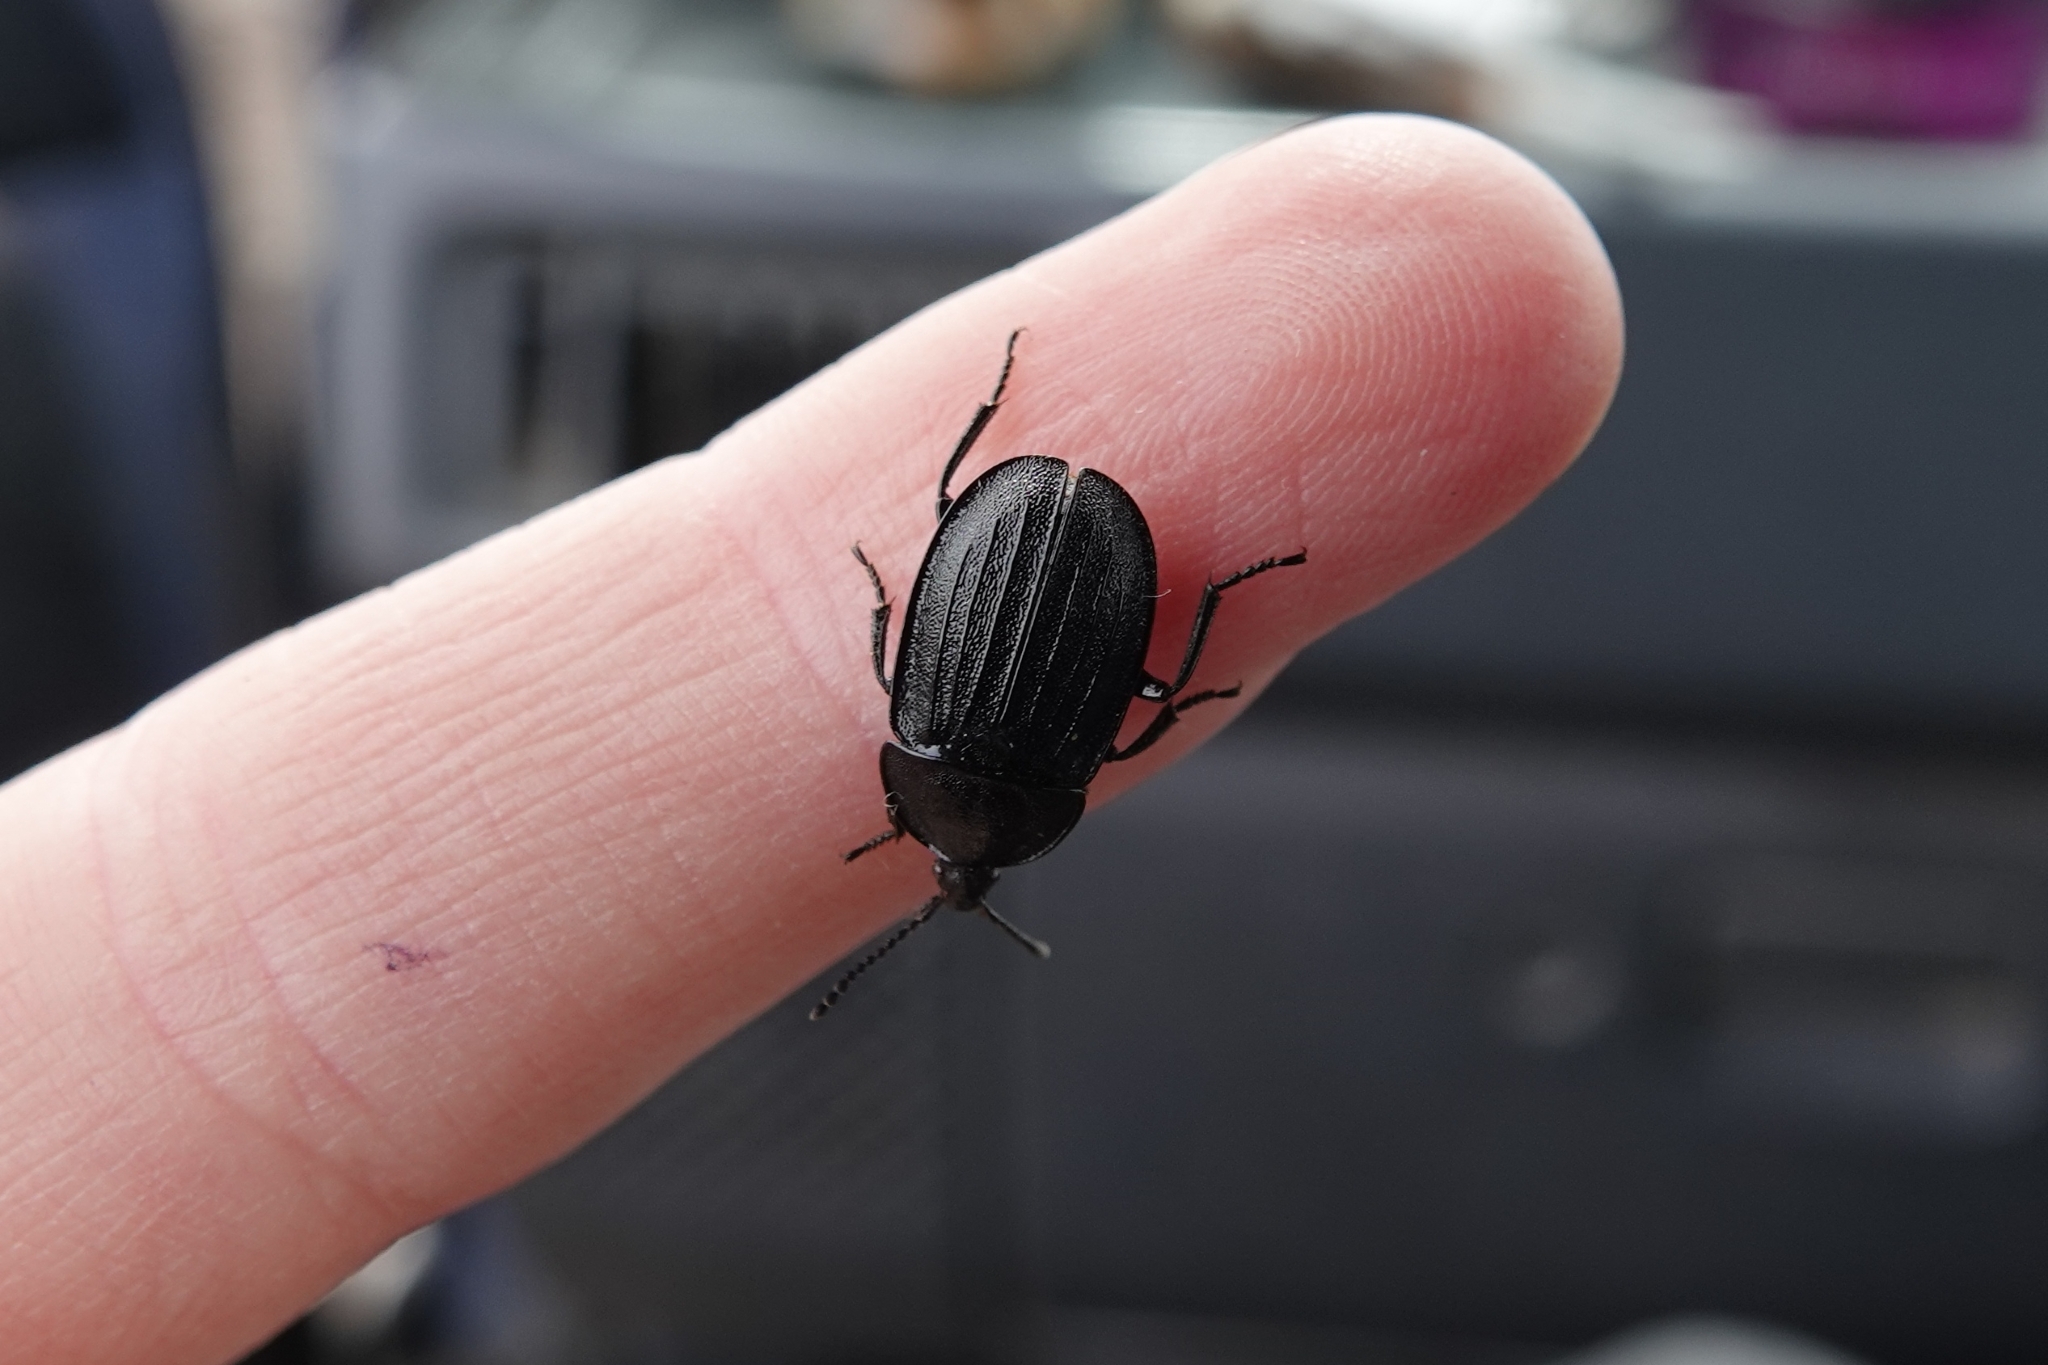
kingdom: Animalia
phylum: Arthropoda
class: Insecta
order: Coleoptera
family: Staphylinidae
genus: Silpha
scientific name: Silpha atrata
